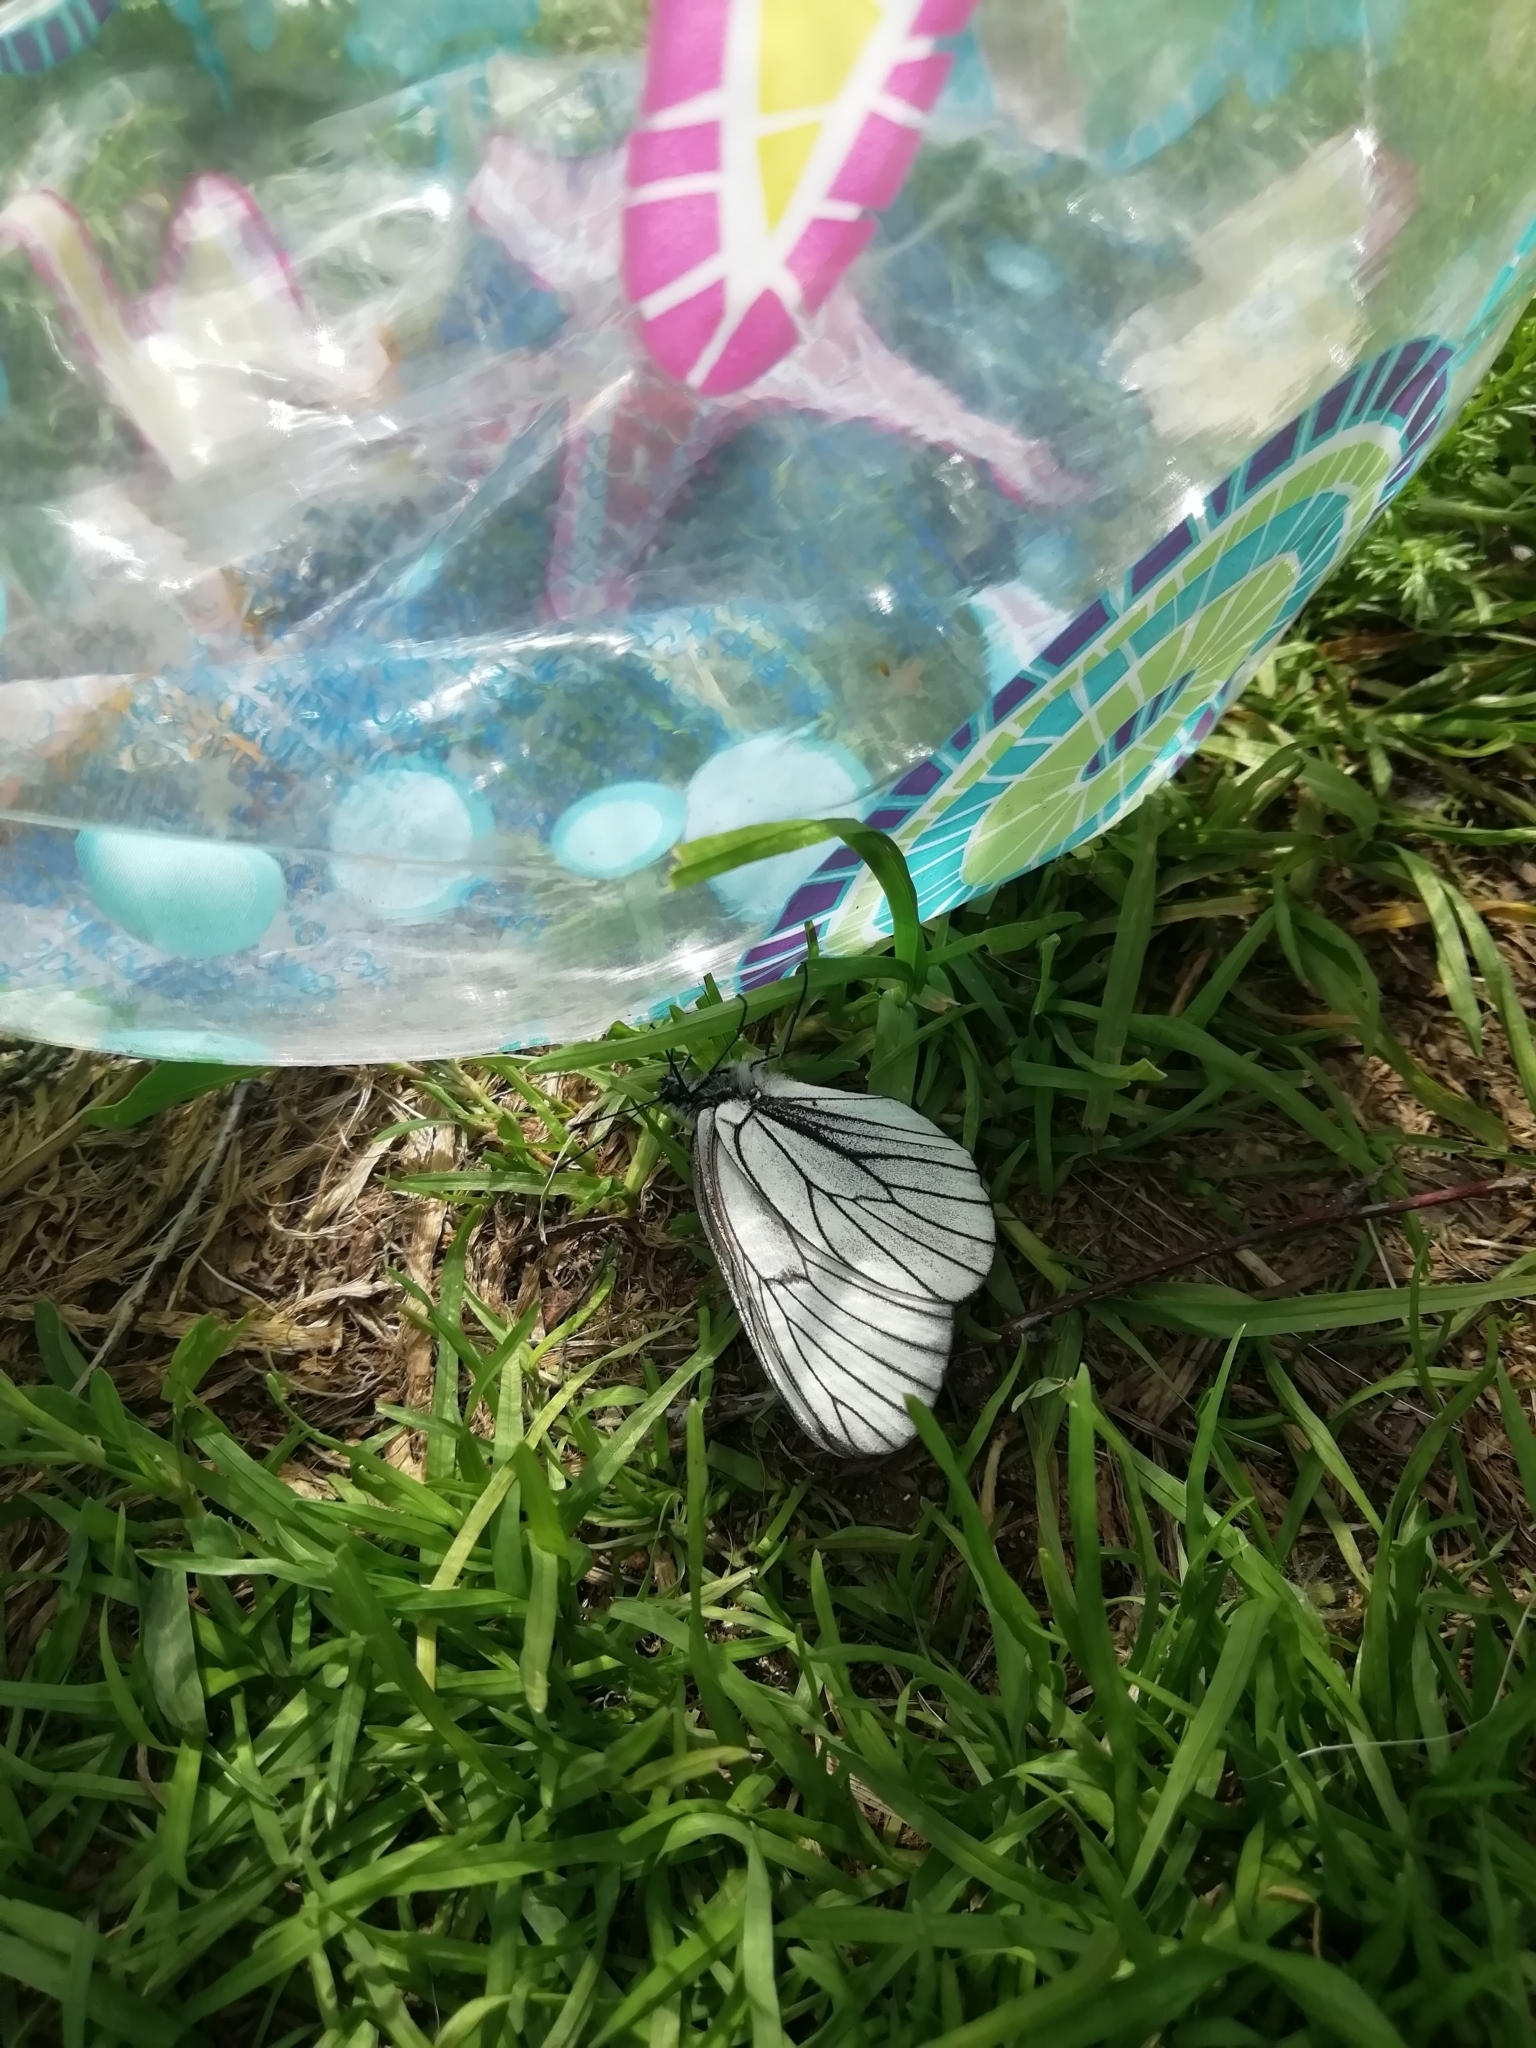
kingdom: Animalia
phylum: Arthropoda
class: Insecta
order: Lepidoptera
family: Pieridae
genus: Aporia
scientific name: Aporia crataegi
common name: Black-veined white
